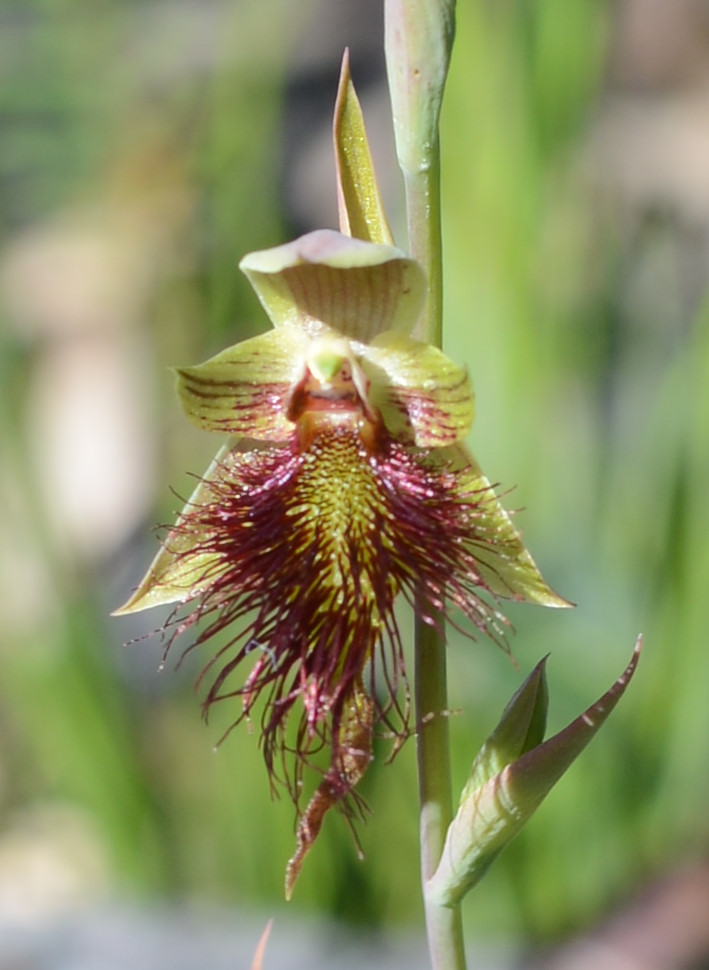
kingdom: Plantae
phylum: Tracheophyta
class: Liliopsida
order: Asparagales
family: Orchidaceae
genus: Calochilus
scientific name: Calochilus paludosus
